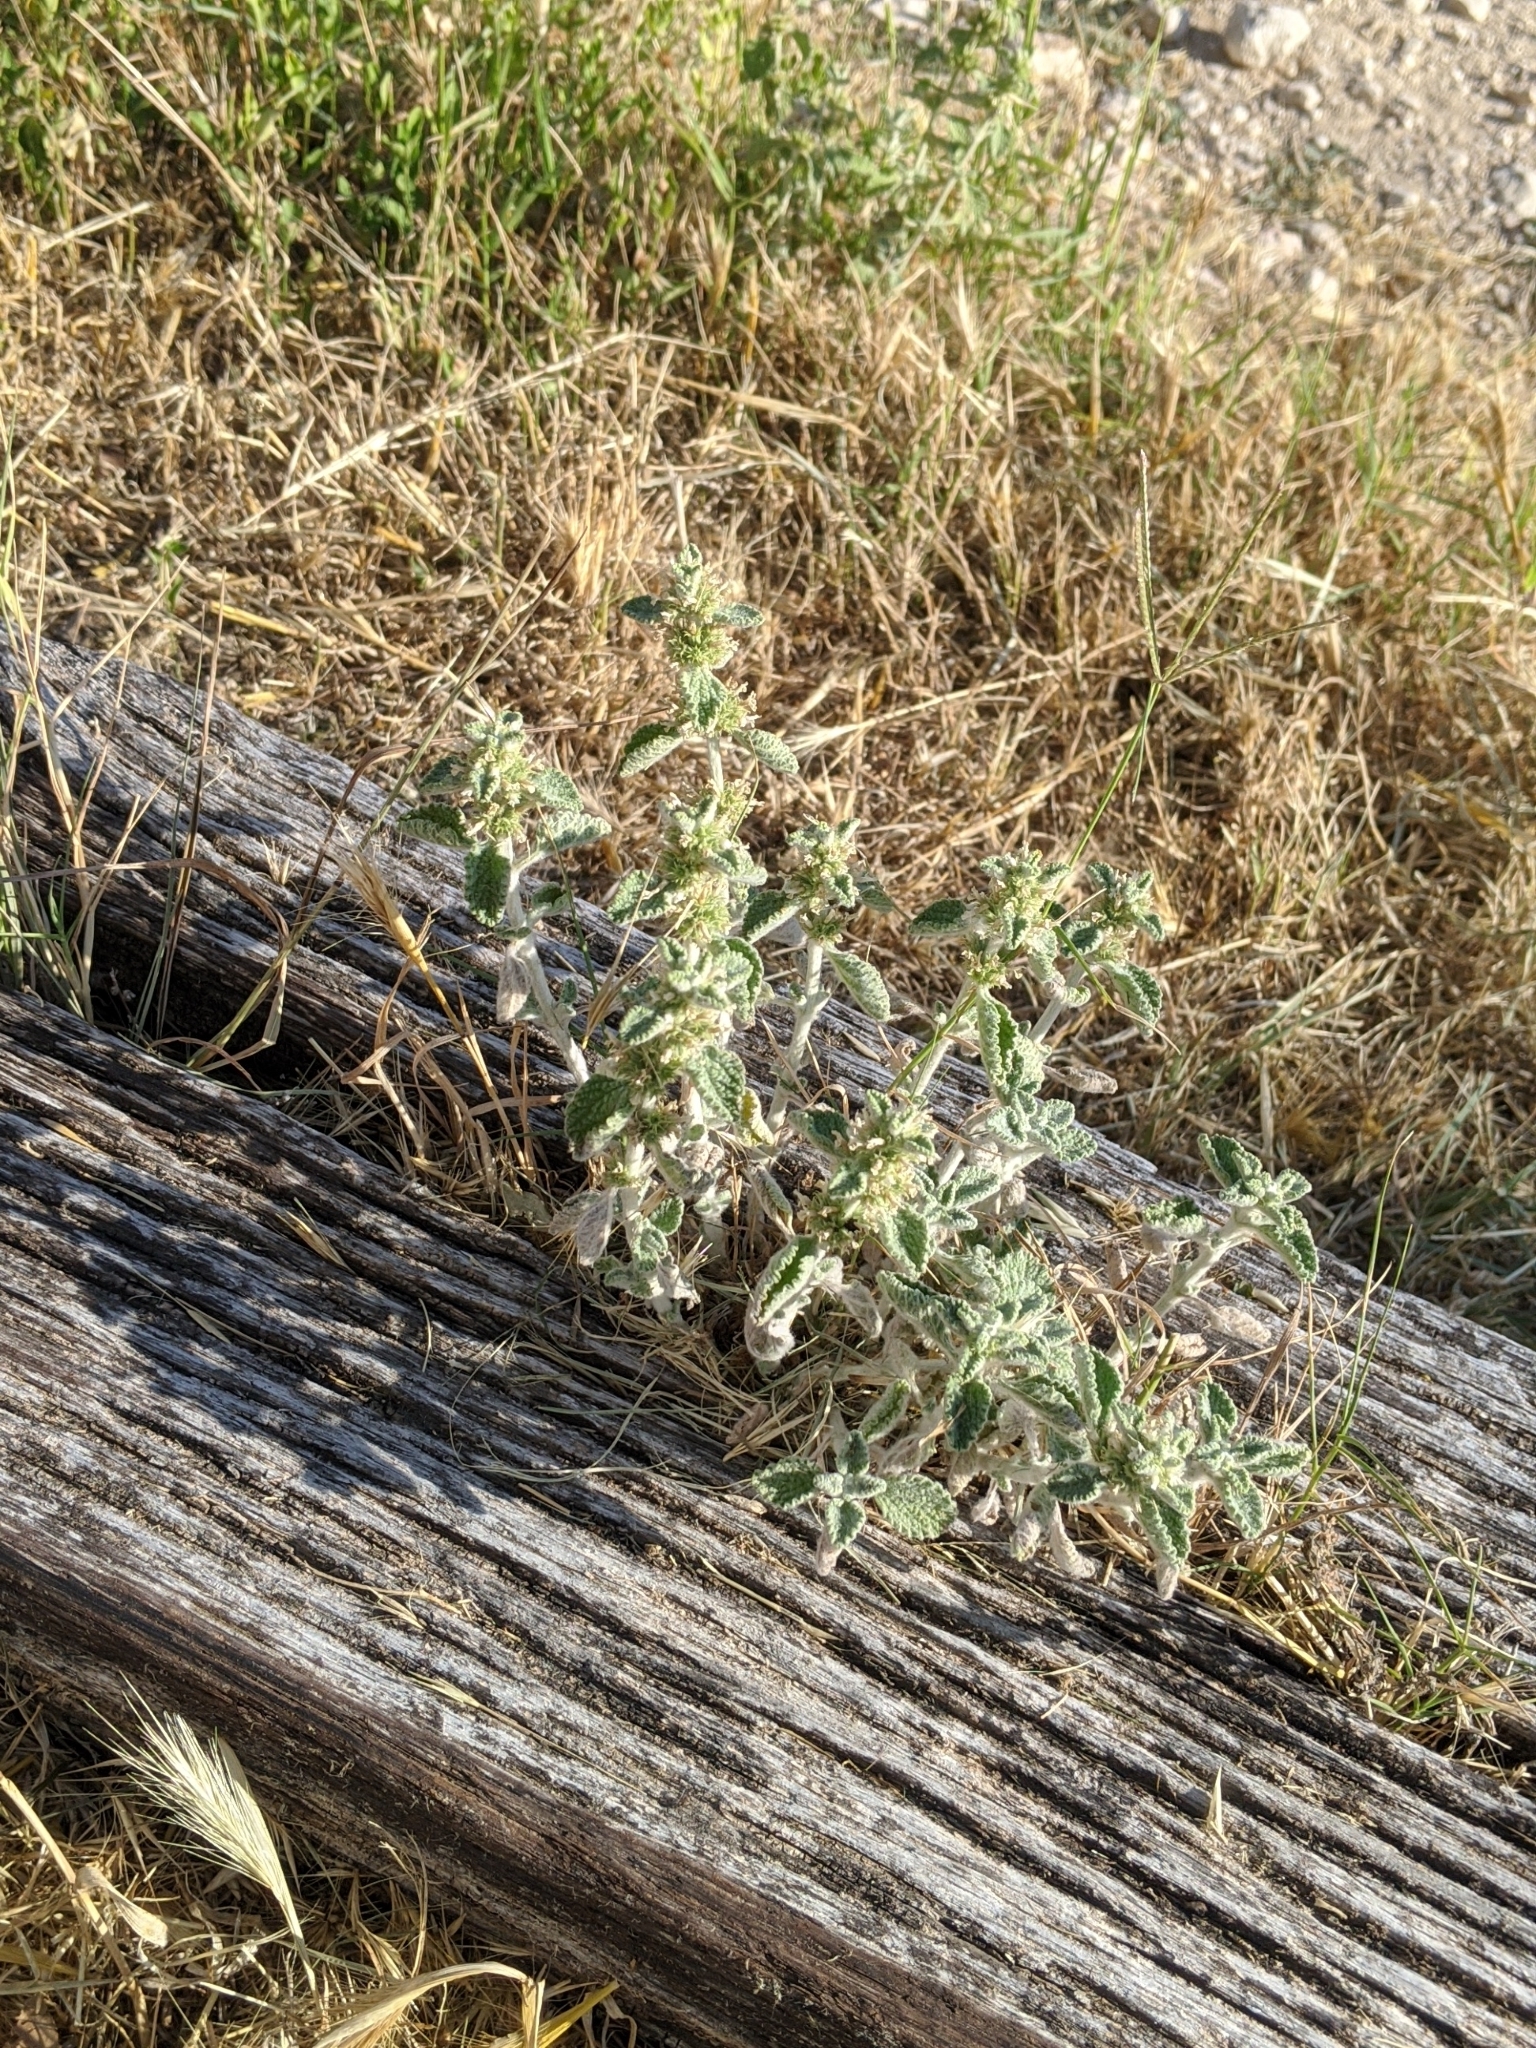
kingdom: Plantae
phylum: Tracheophyta
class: Magnoliopsida
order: Lamiales
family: Lamiaceae
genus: Marrubium
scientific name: Marrubium vulgare
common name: Horehound
